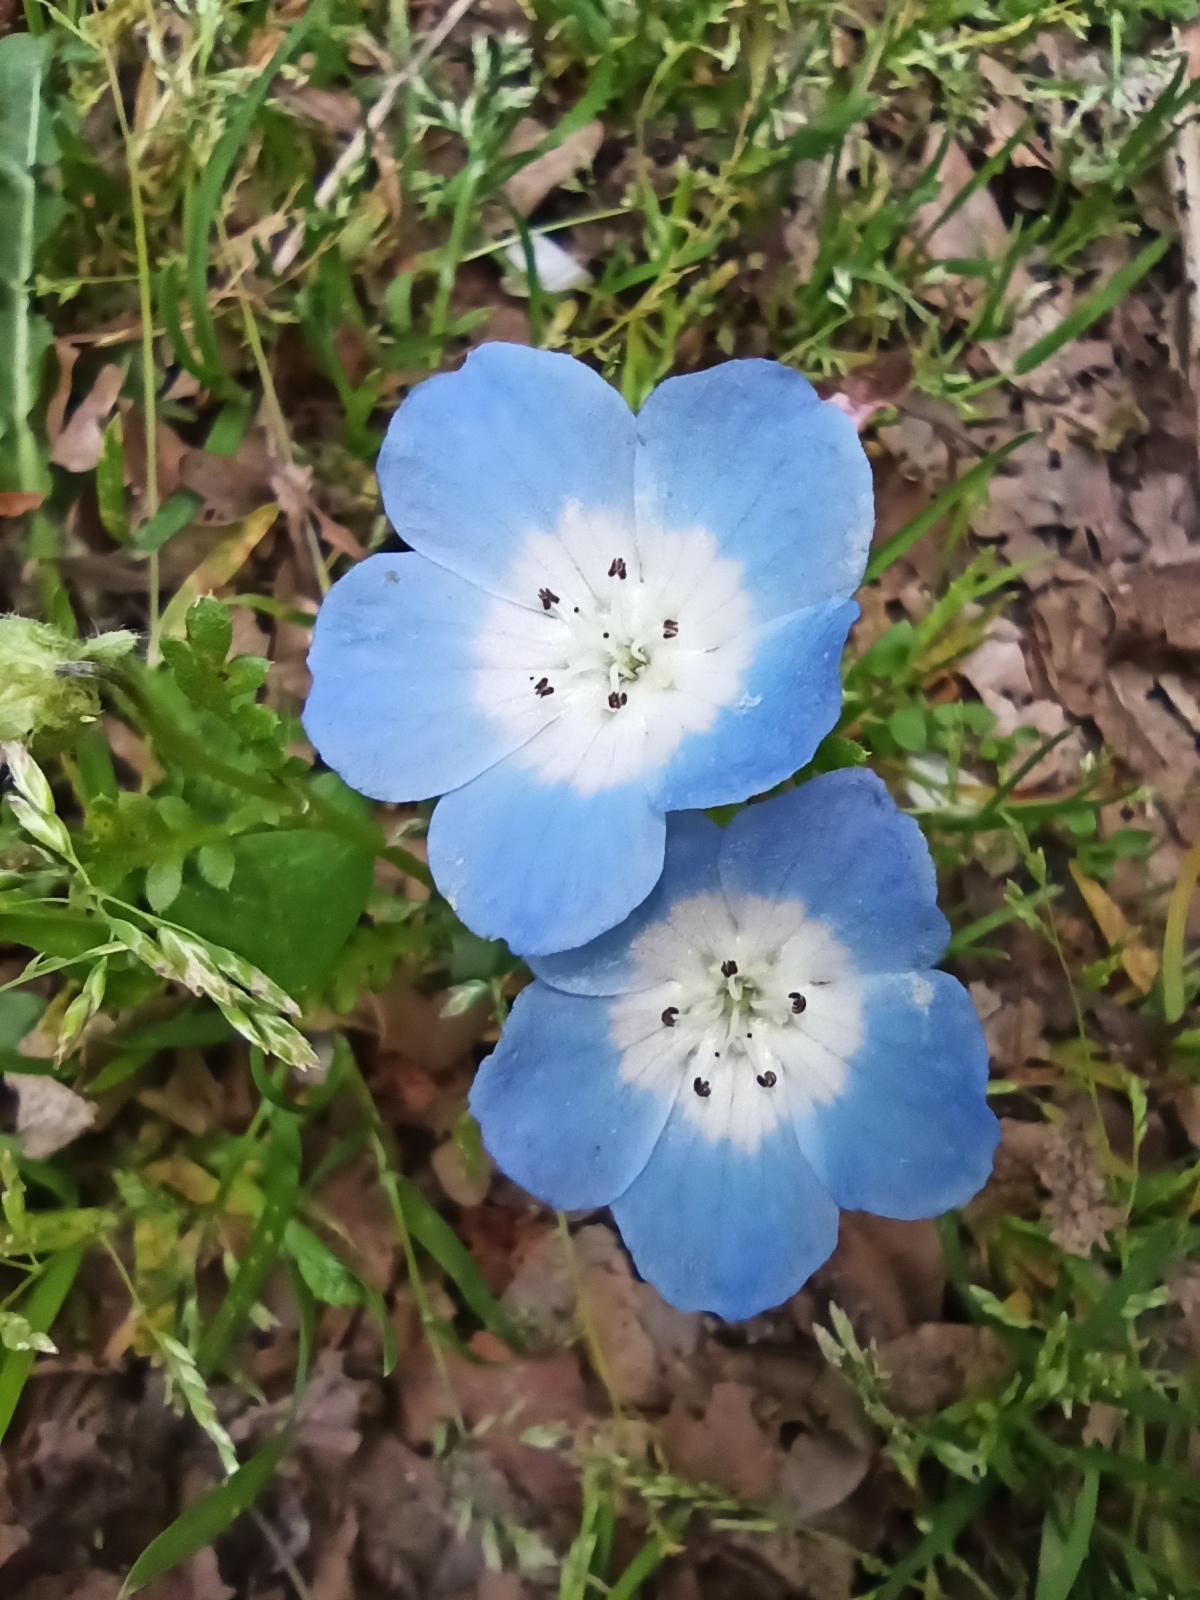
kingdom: Plantae
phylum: Tracheophyta
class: Magnoliopsida
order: Boraginales
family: Hydrophyllaceae
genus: Nemophila
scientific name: Nemophila menziesii
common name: Baby's-blue-eyes
